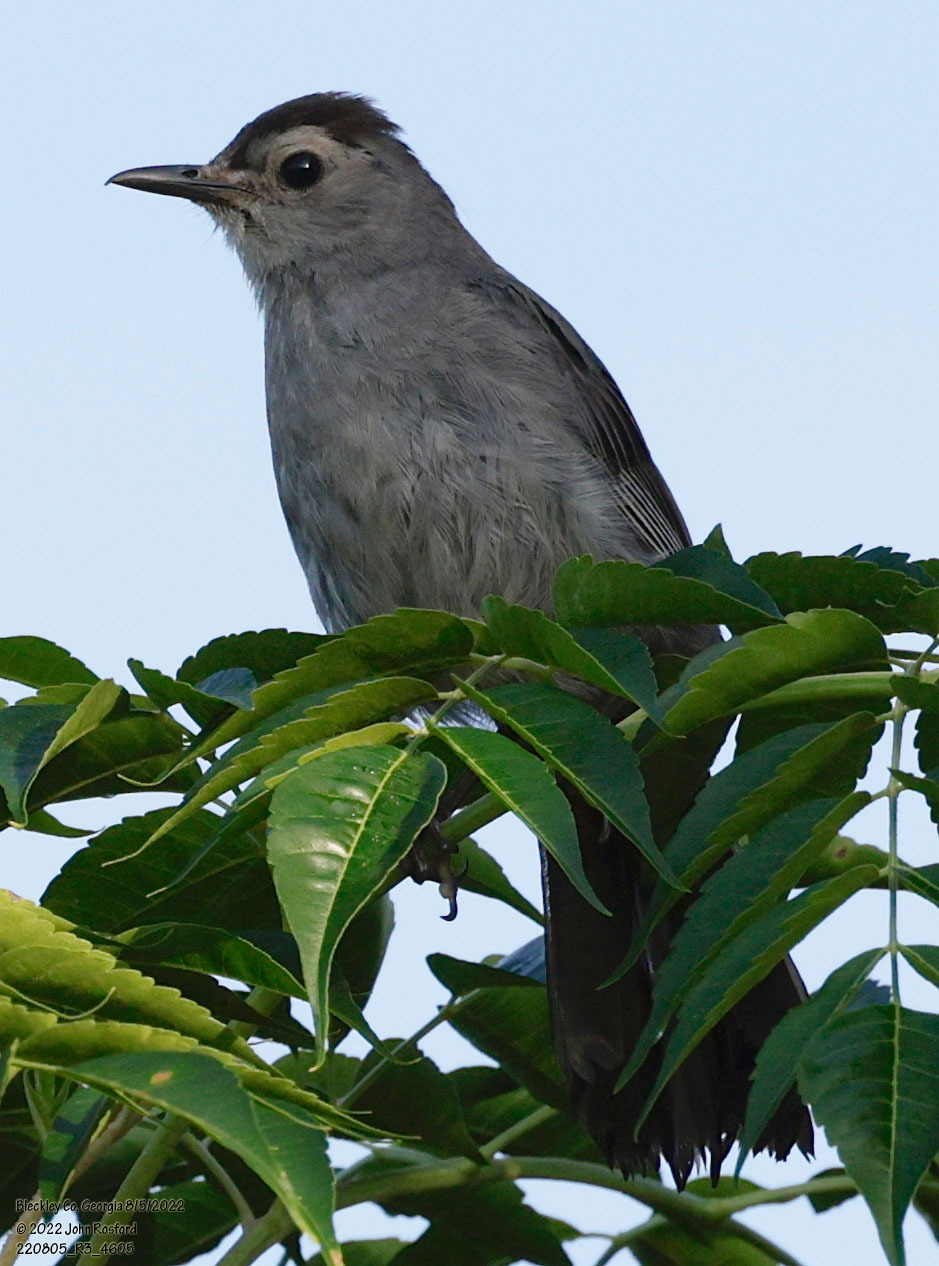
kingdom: Animalia
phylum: Chordata
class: Aves
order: Passeriformes
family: Mimidae
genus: Dumetella
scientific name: Dumetella carolinensis
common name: Gray catbird
